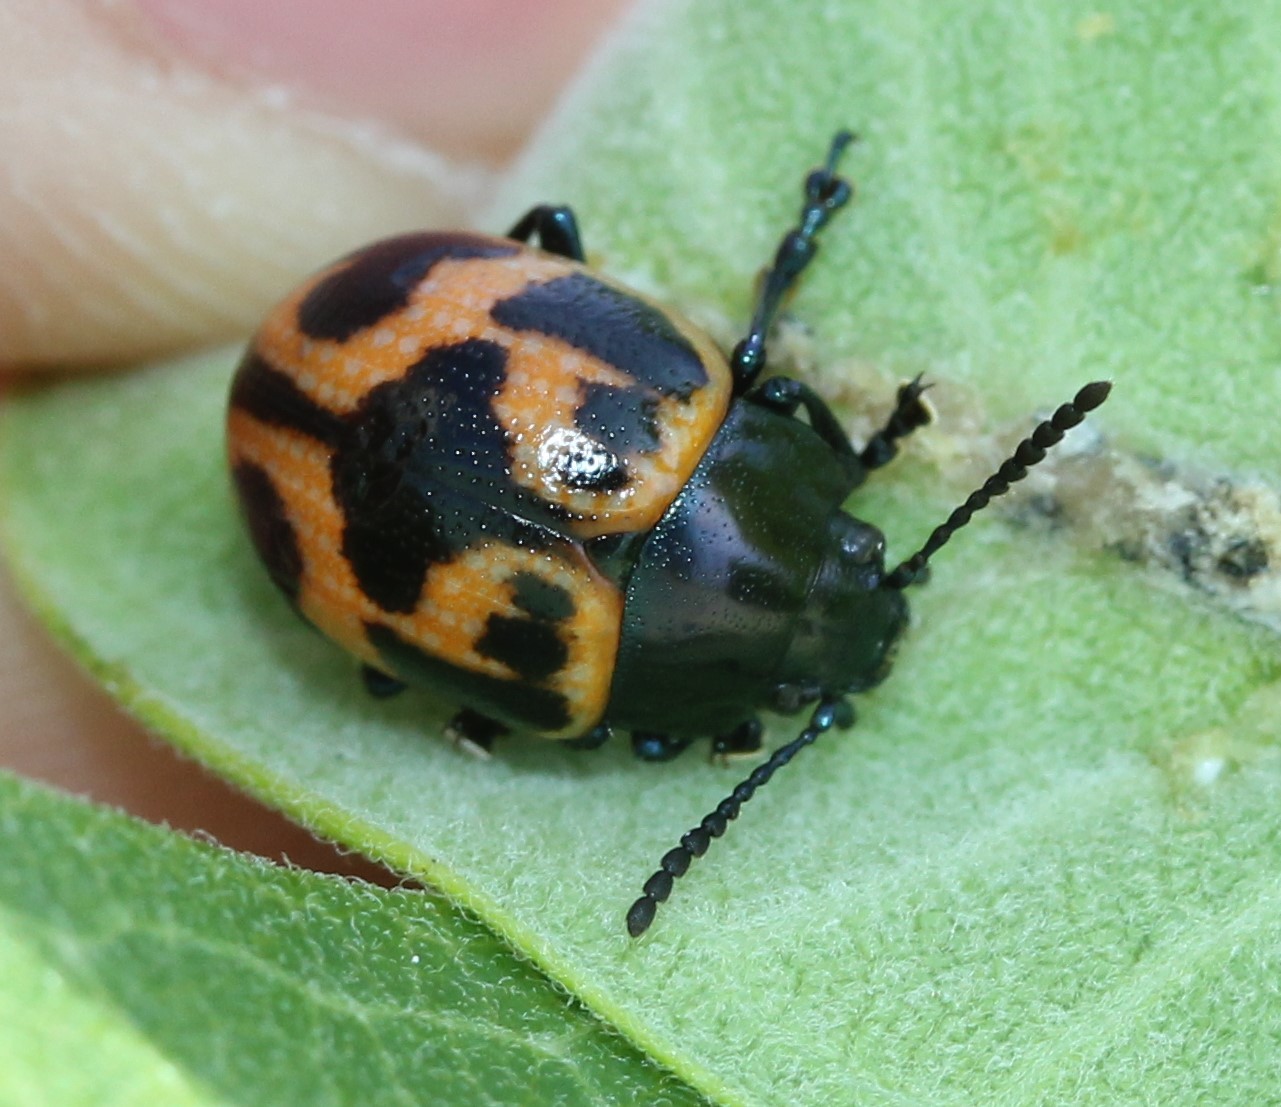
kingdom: Animalia
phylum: Arthropoda
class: Insecta
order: Coleoptera
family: Chrysomelidae
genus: Labidomera
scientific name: Labidomera clivicollis
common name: Swamp milkweed leaf beetle
